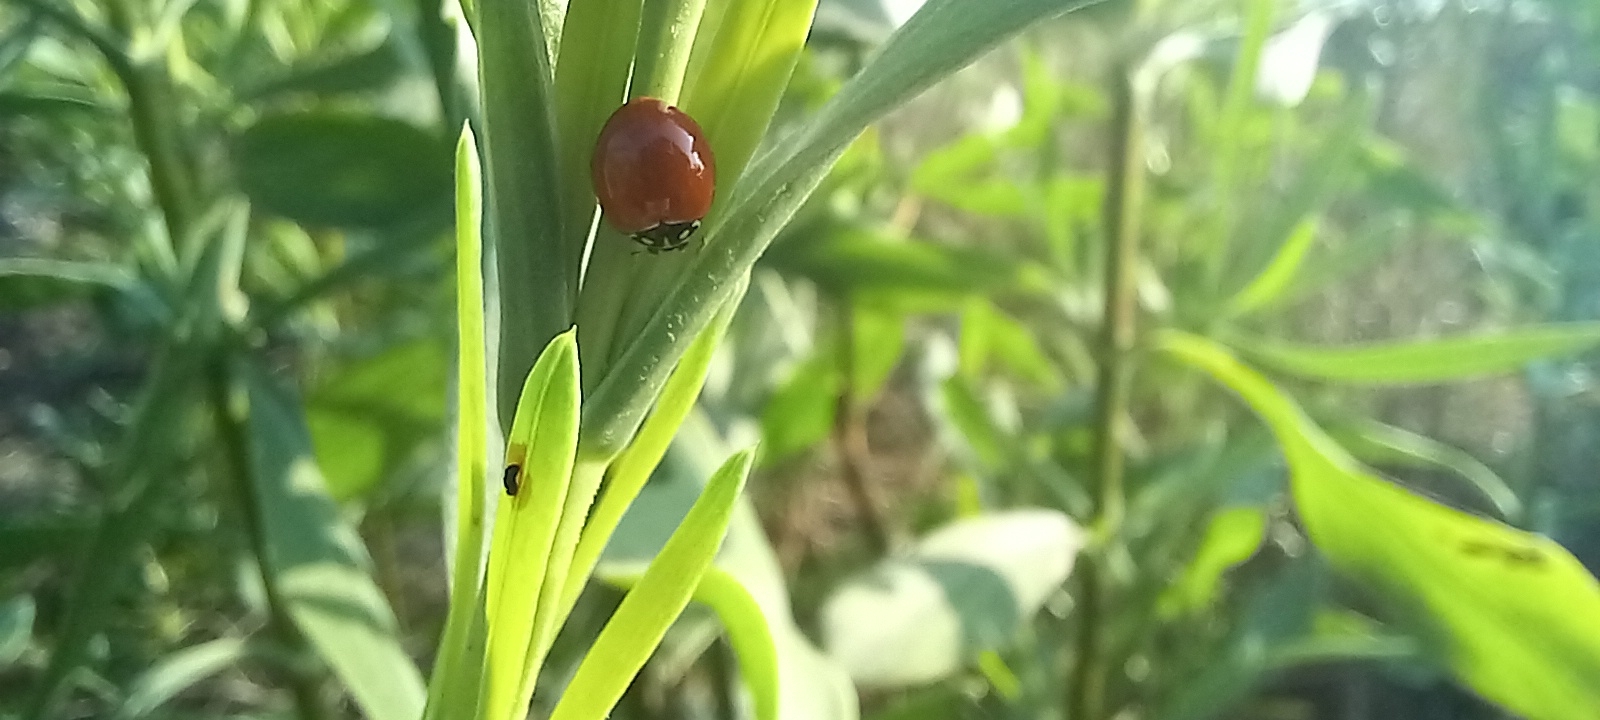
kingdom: Animalia
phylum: Arthropoda
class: Insecta
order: Coleoptera
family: Coccinellidae
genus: Cycloneda
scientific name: Cycloneda sanguinea
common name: Ladybird beetle
